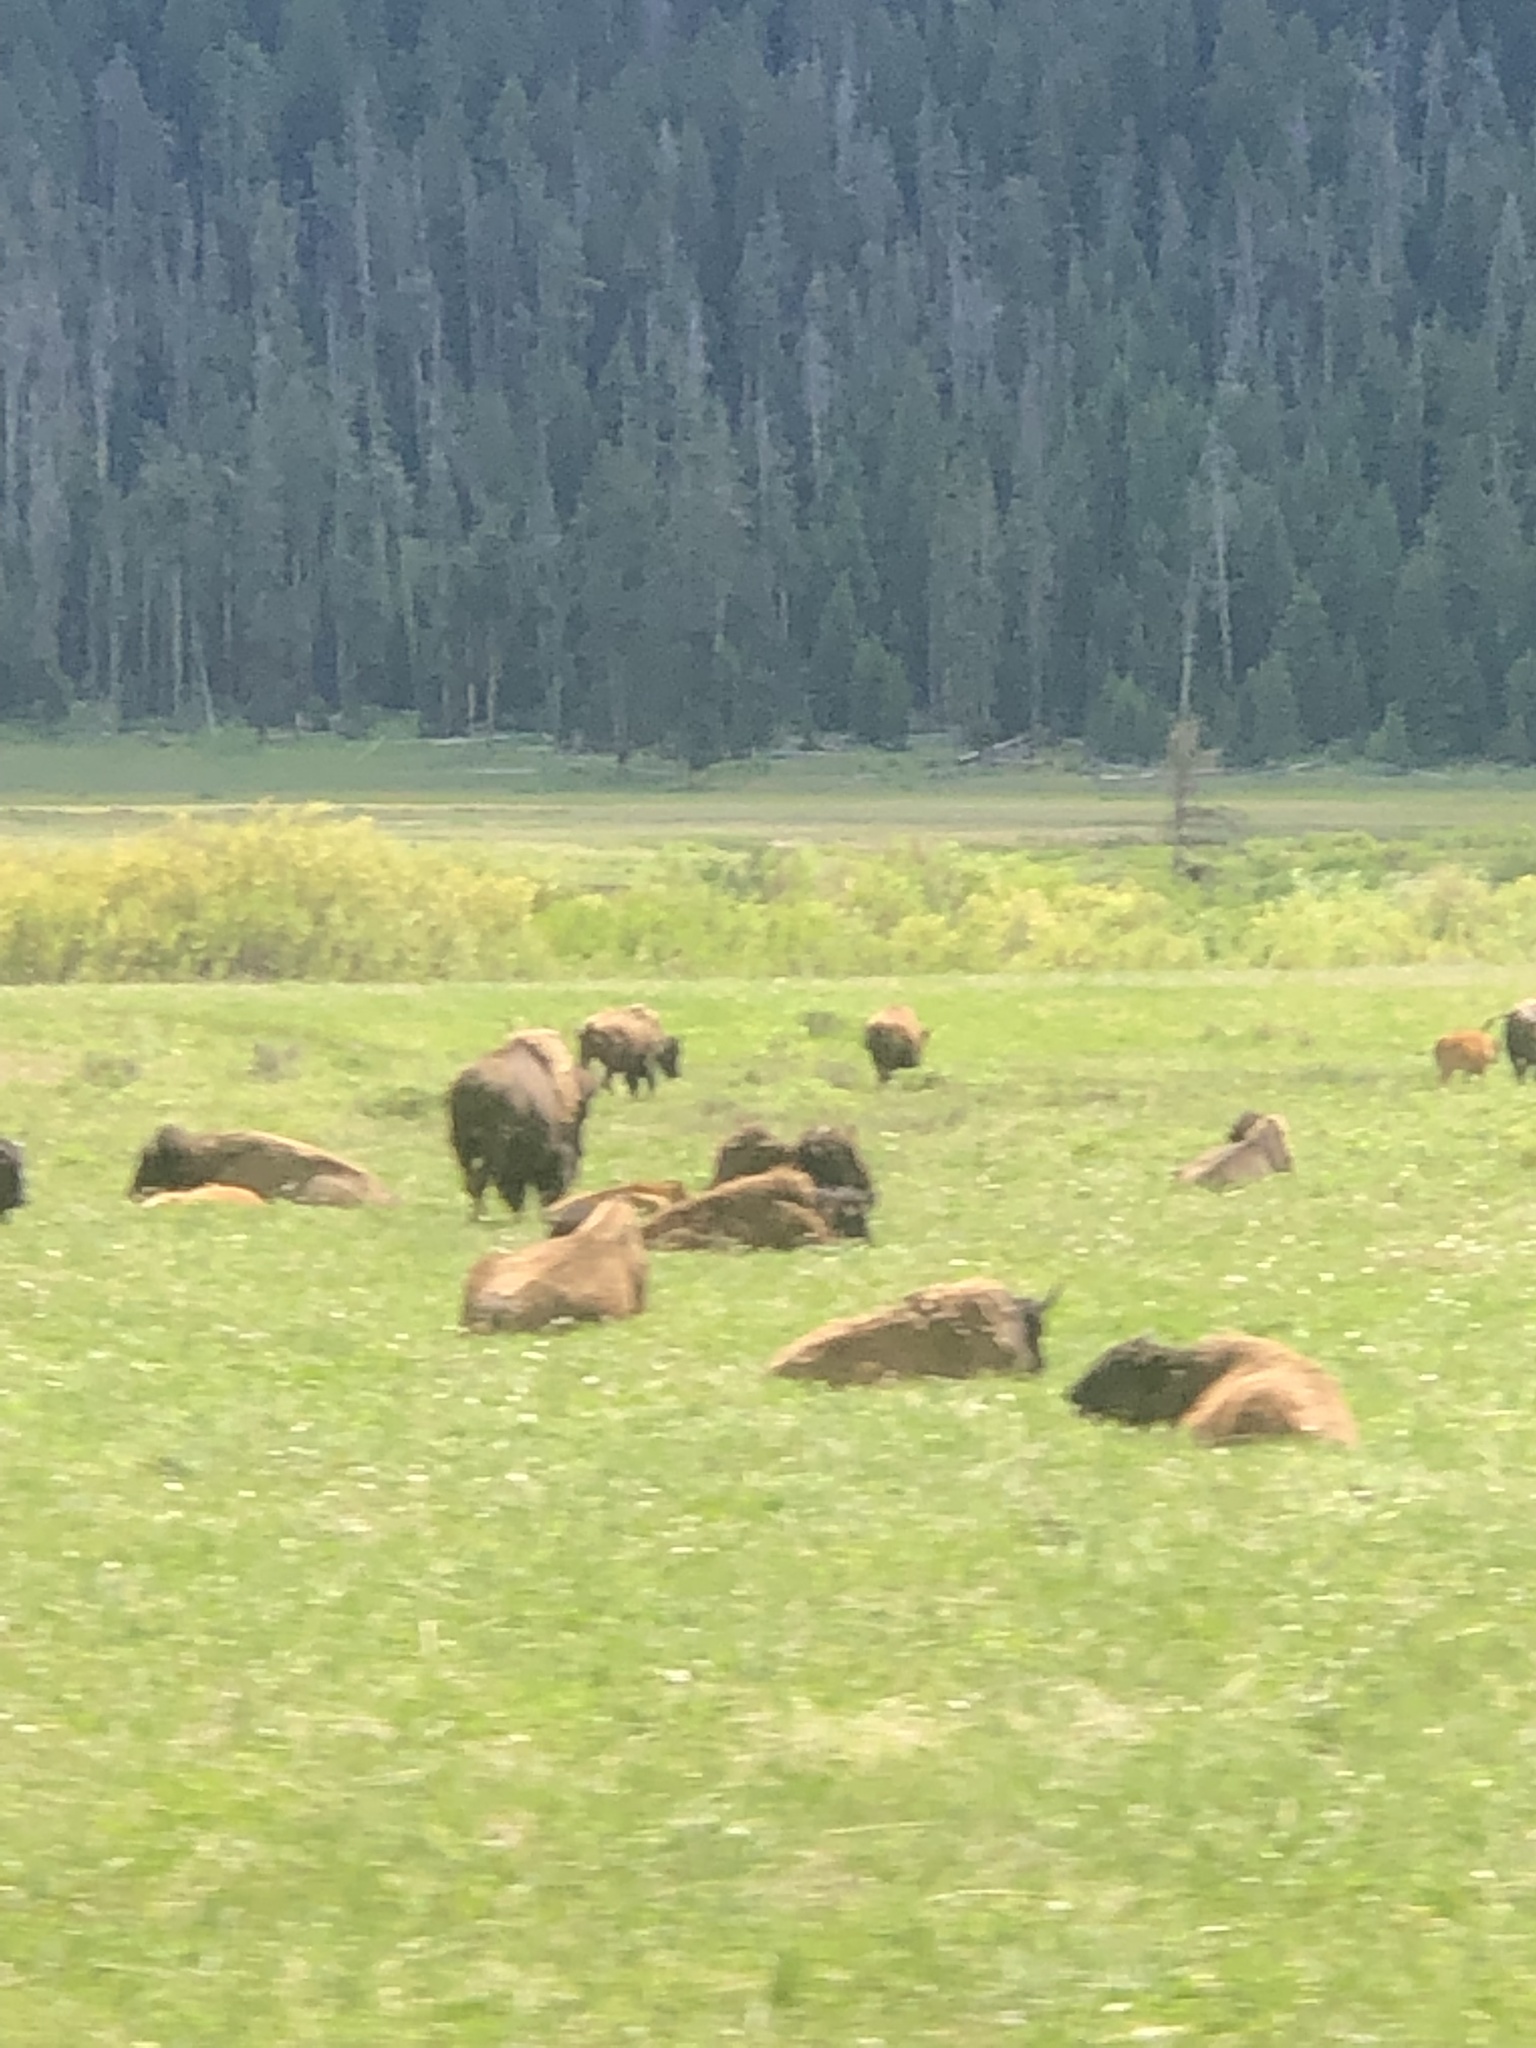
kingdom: Animalia
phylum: Chordata
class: Mammalia
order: Artiodactyla
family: Bovidae
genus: Bison
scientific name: Bison bison
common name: American bison
